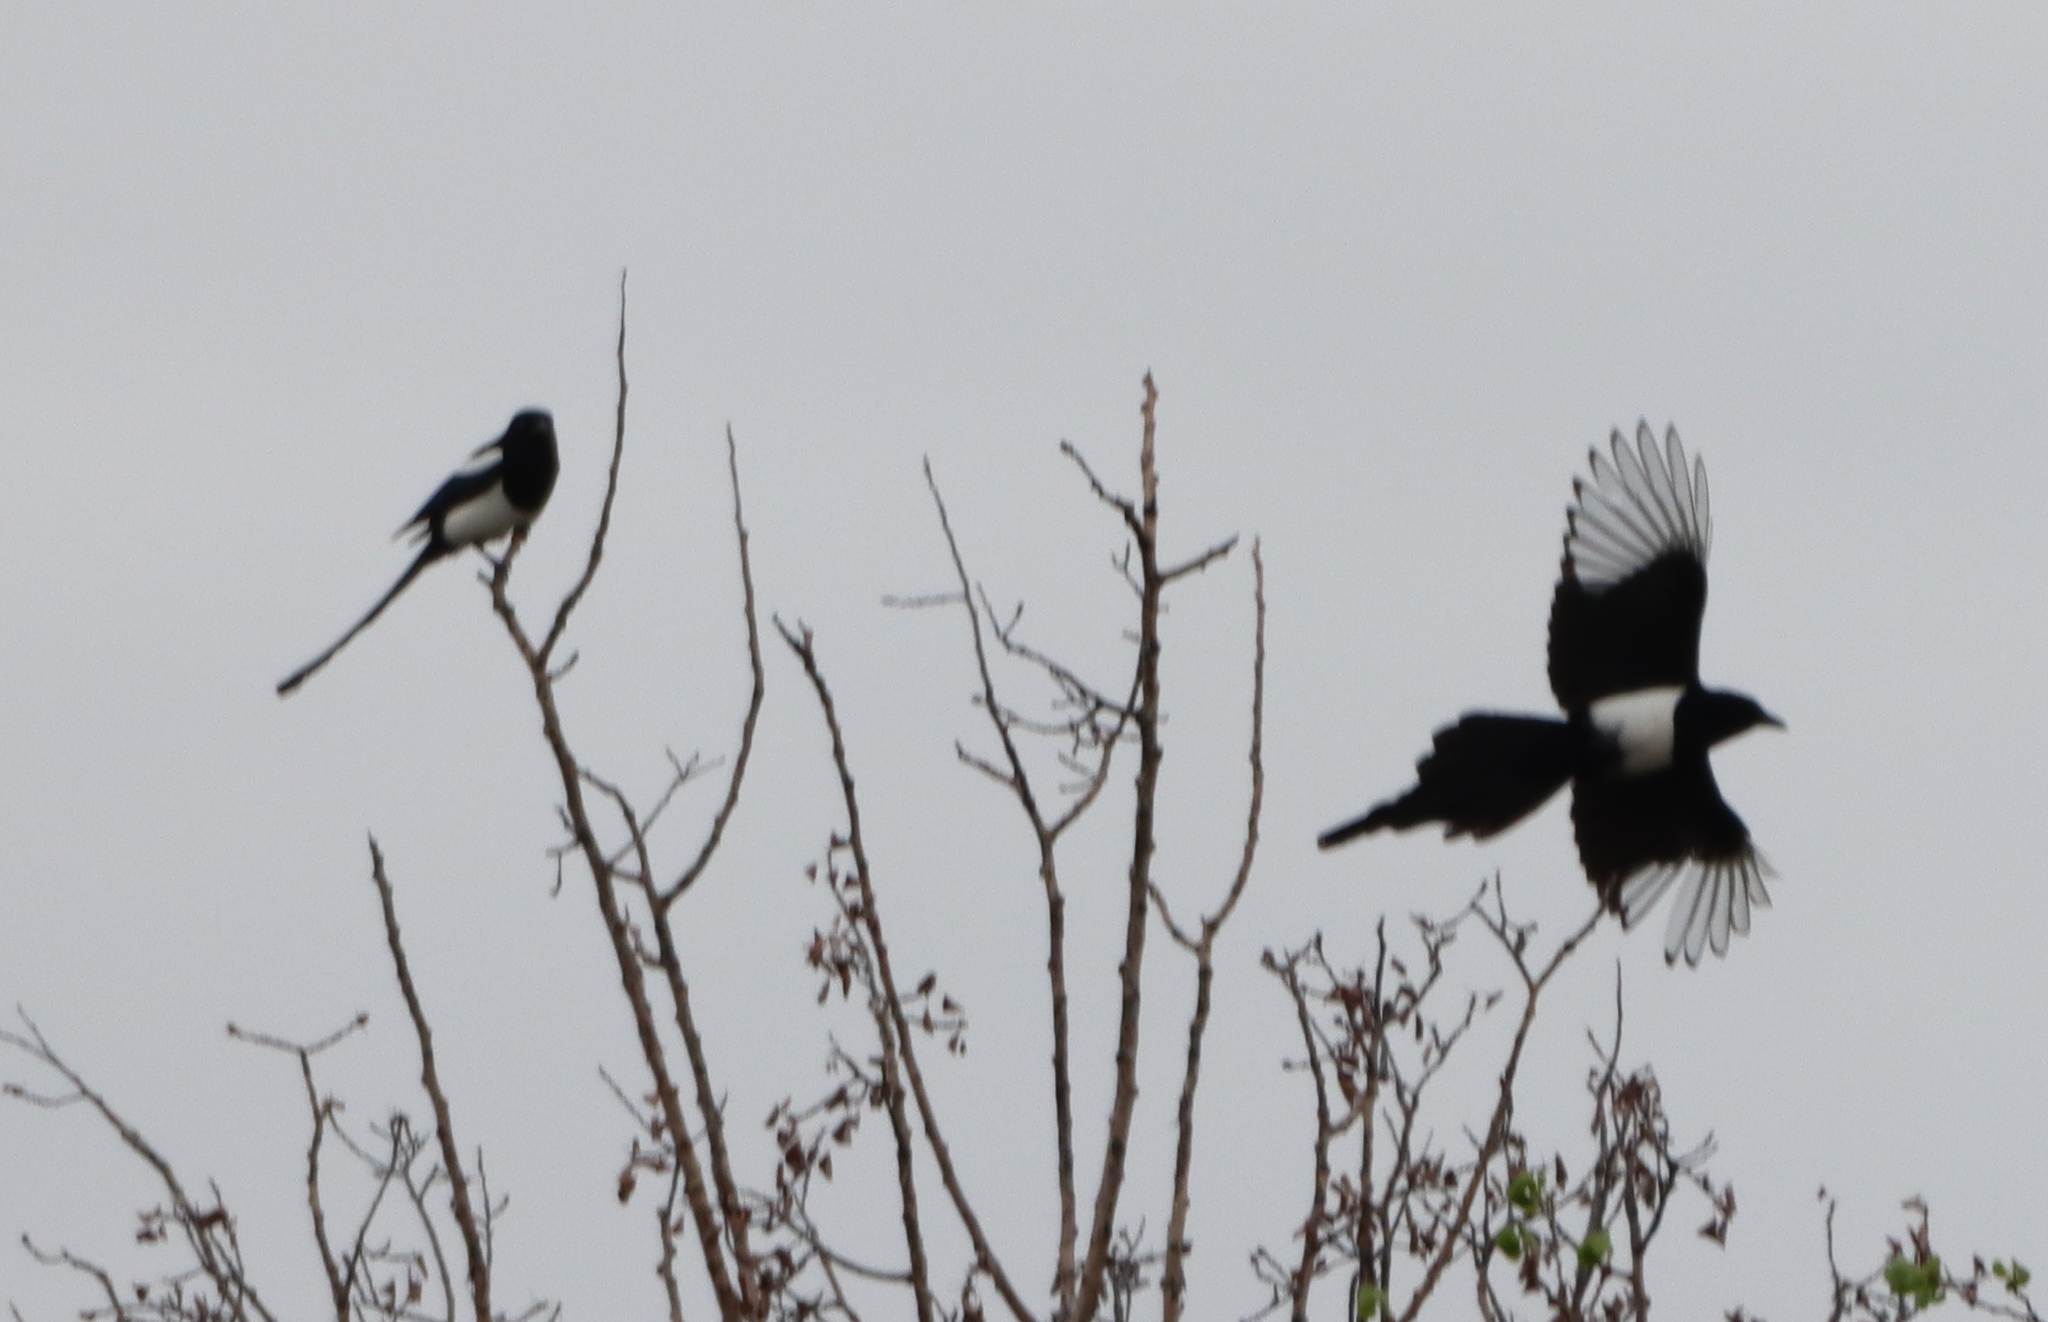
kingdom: Animalia
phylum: Chordata
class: Aves
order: Passeriformes
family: Corvidae
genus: Pica
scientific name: Pica hudsonia
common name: Black-billed magpie
